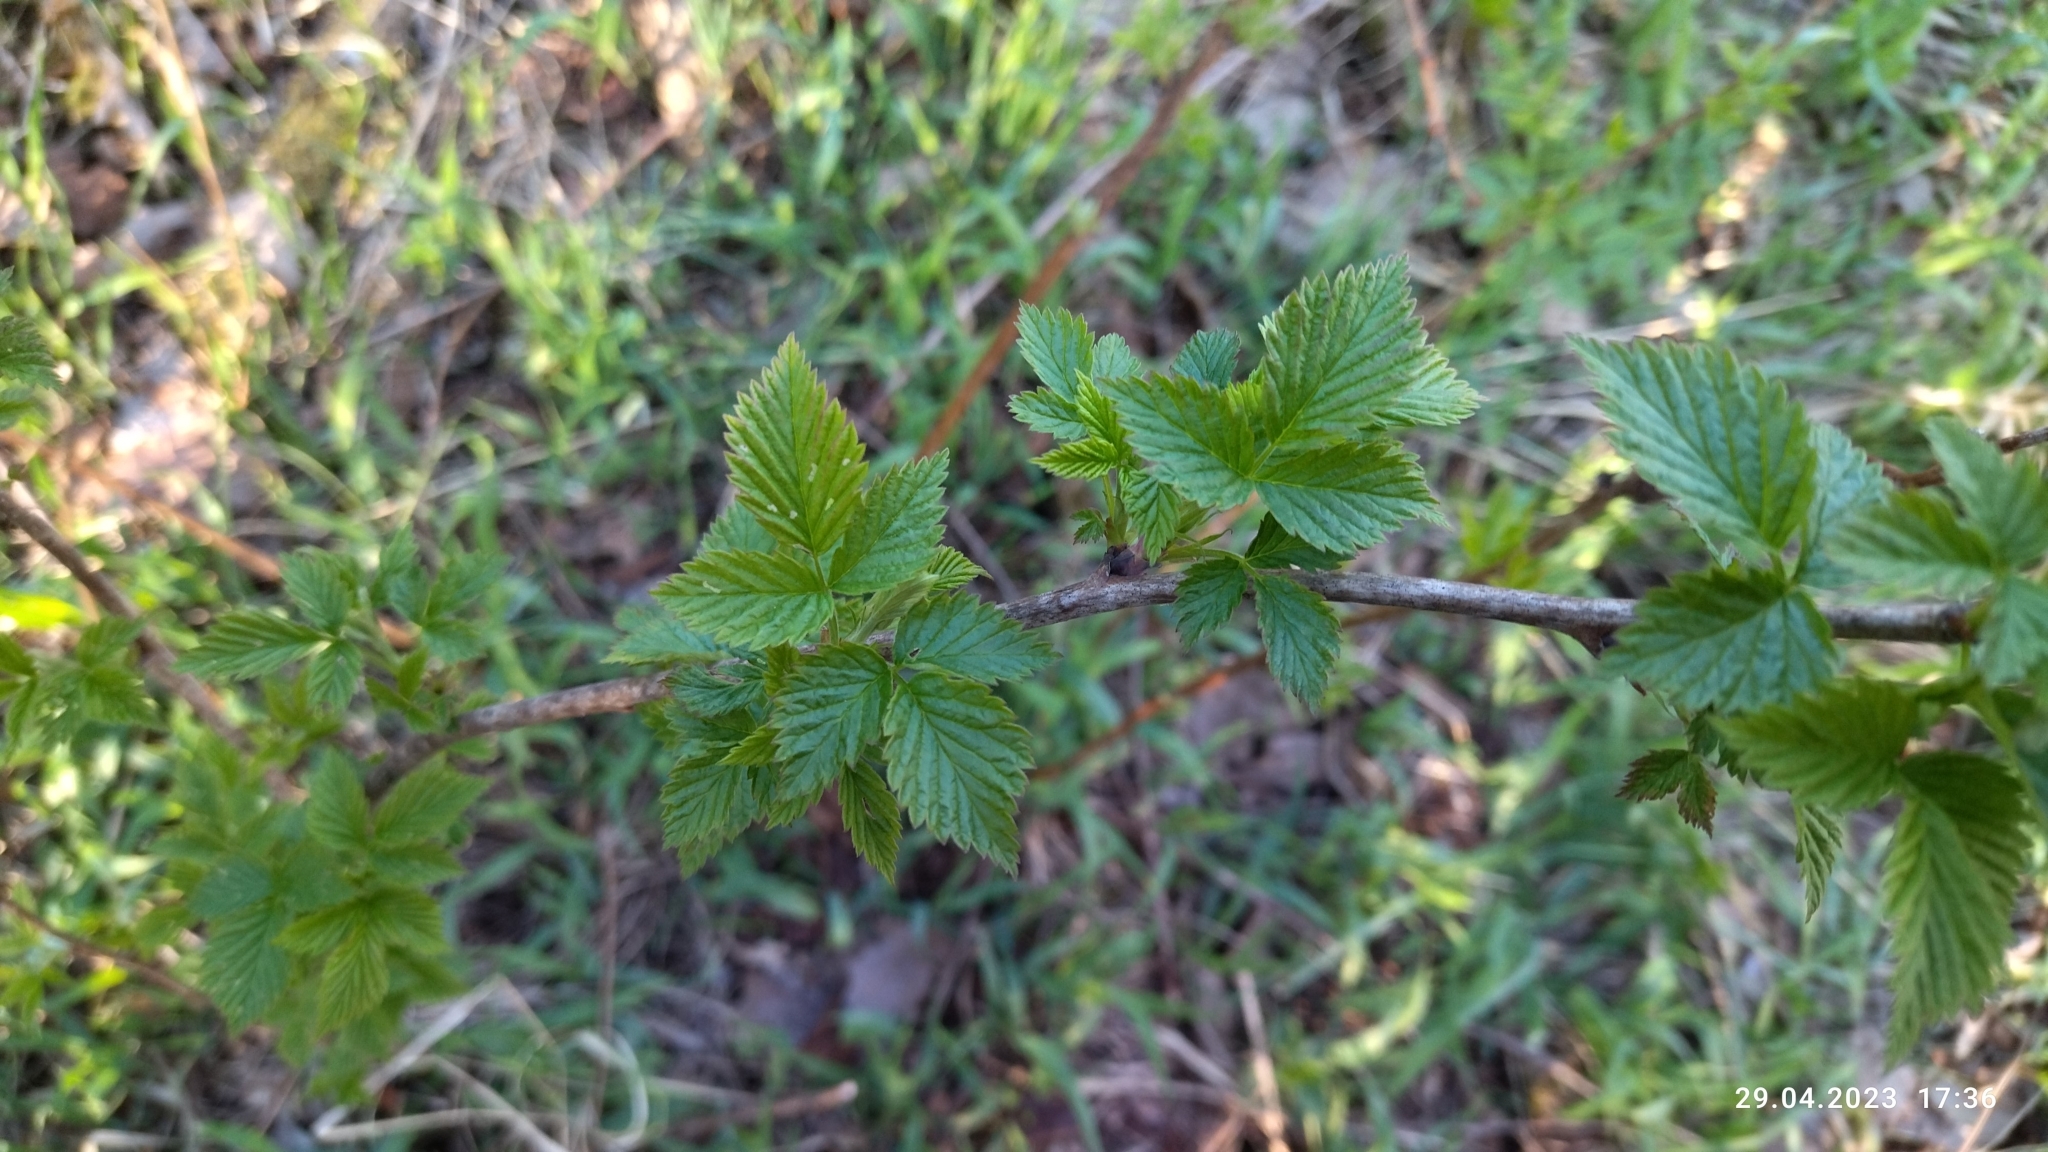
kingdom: Plantae
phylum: Tracheophyta
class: Magnoliopsida
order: Rosales
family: Rosaceae
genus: Rubus
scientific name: Rubus idaeus
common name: Raspberry
